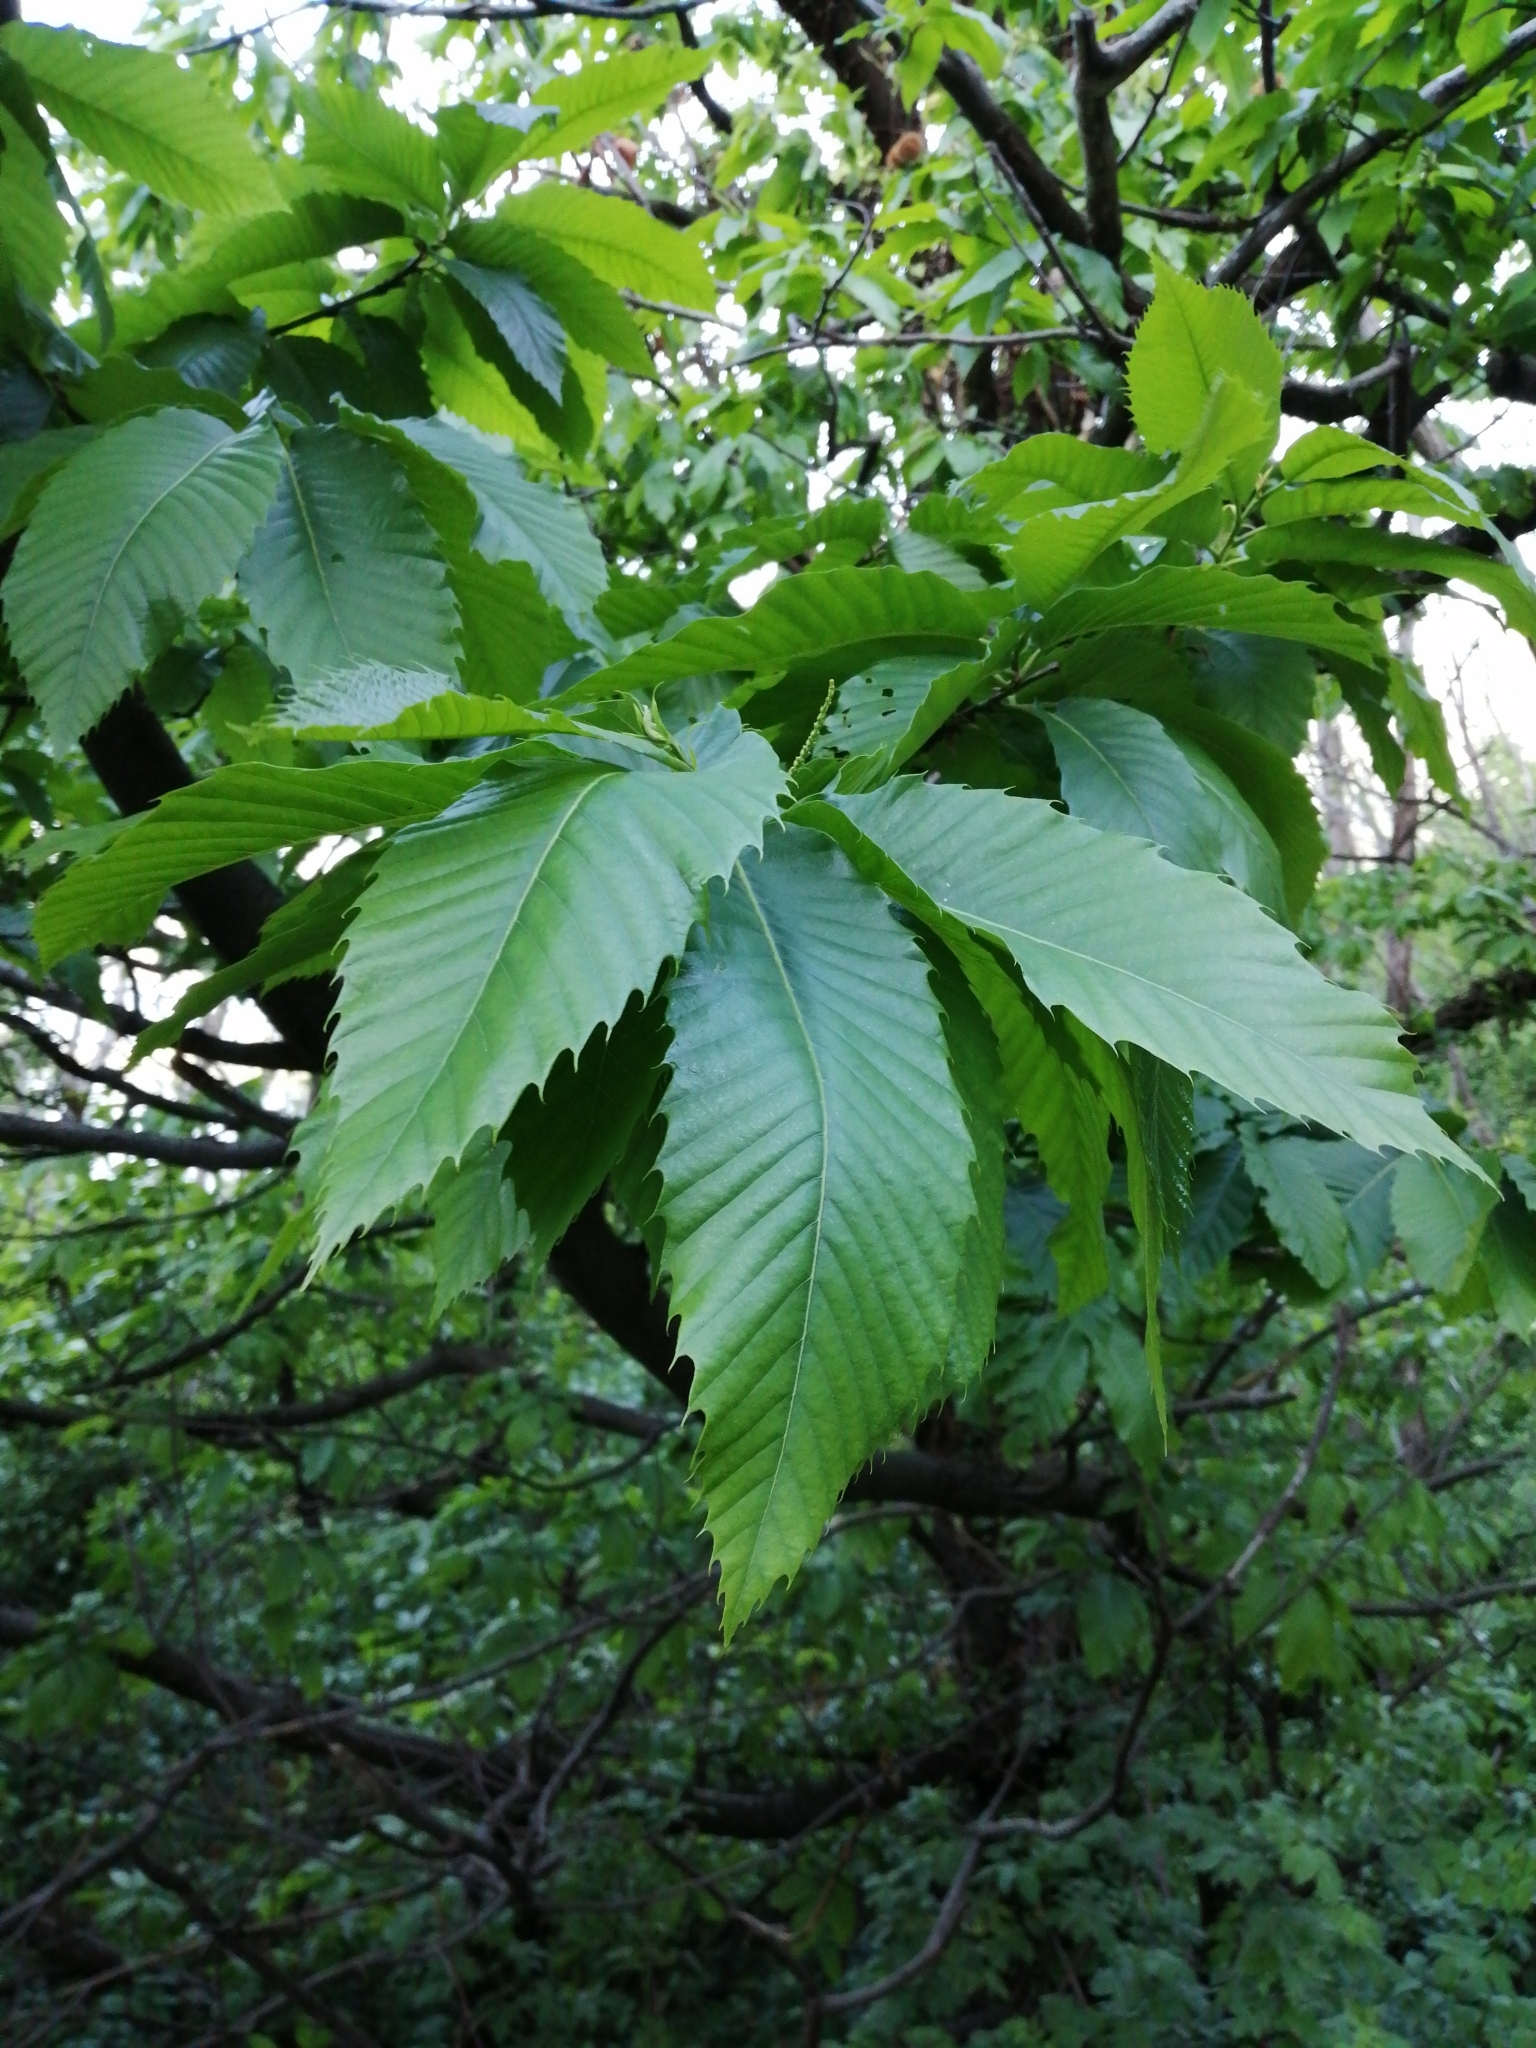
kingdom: Plantae
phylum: Tracheophyta
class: Magnoliopsida
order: Fagales
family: Fagaceae
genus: Castanea
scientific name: Castanea sativa
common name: Sweet chestnut
